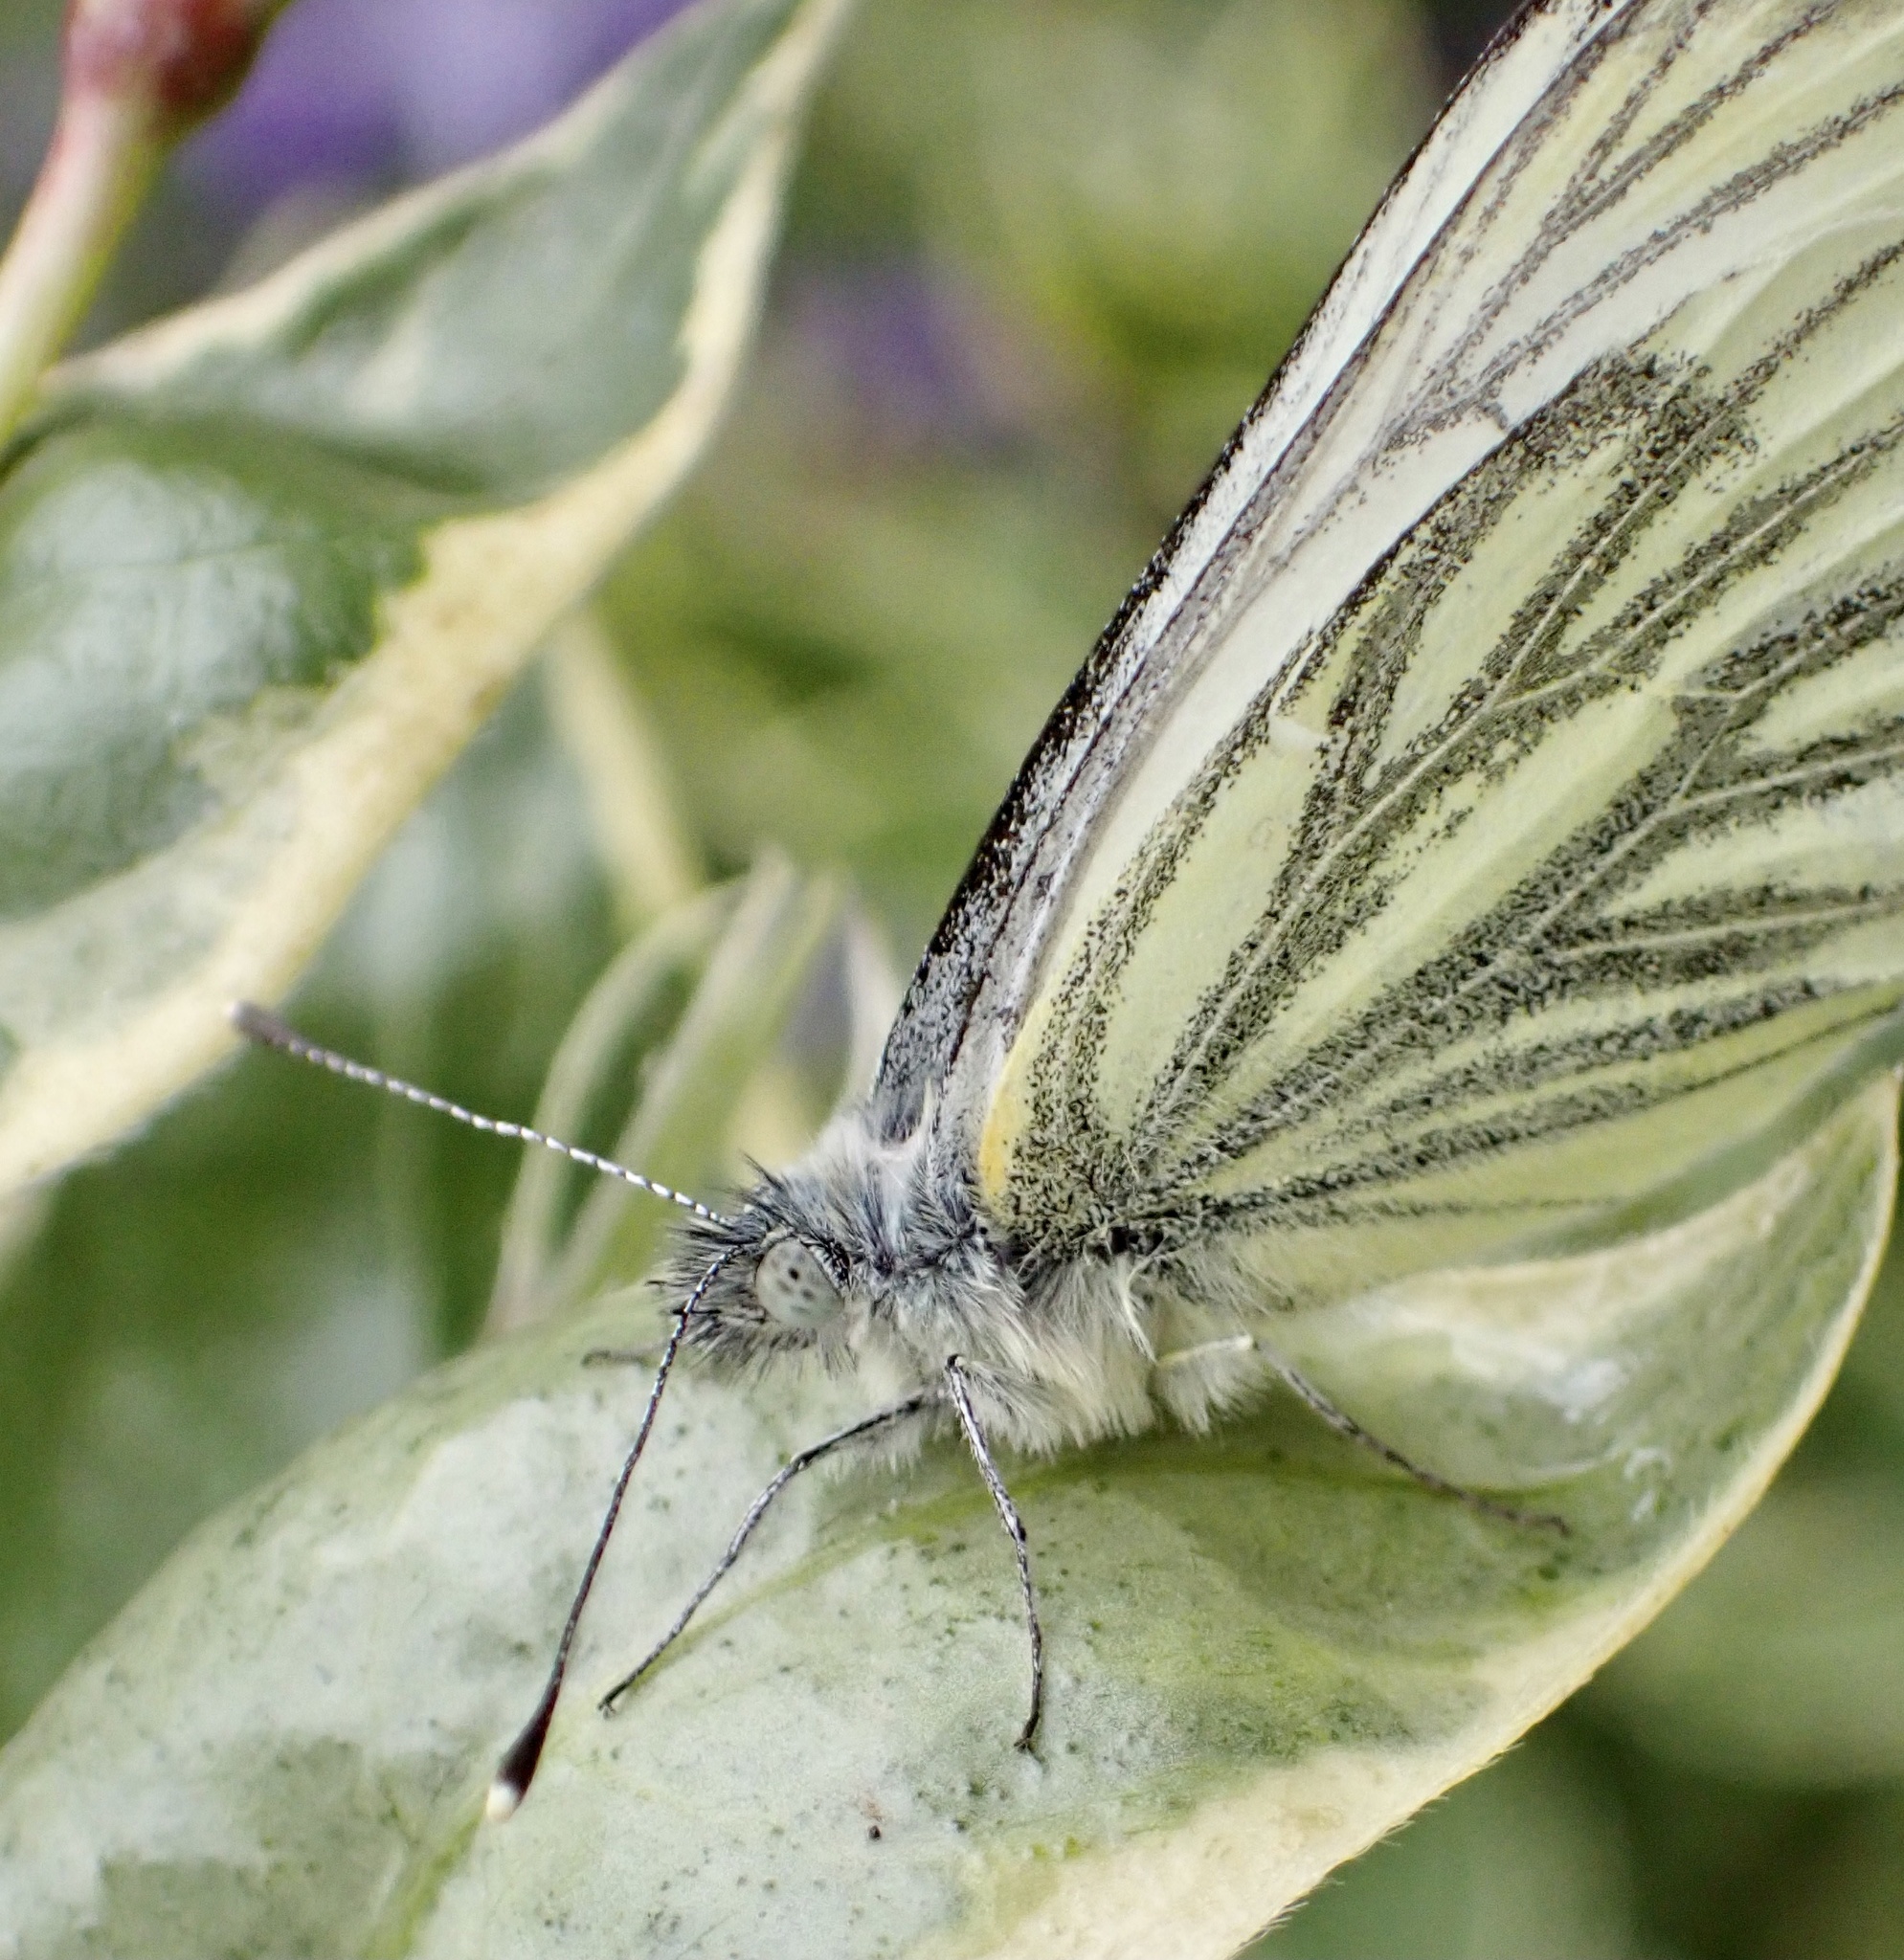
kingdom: Animalia
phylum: Arthropoda
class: Insecta
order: Lepidoptera
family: Pieridae
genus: Pieris
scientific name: Pieris napi
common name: Green-veined white
